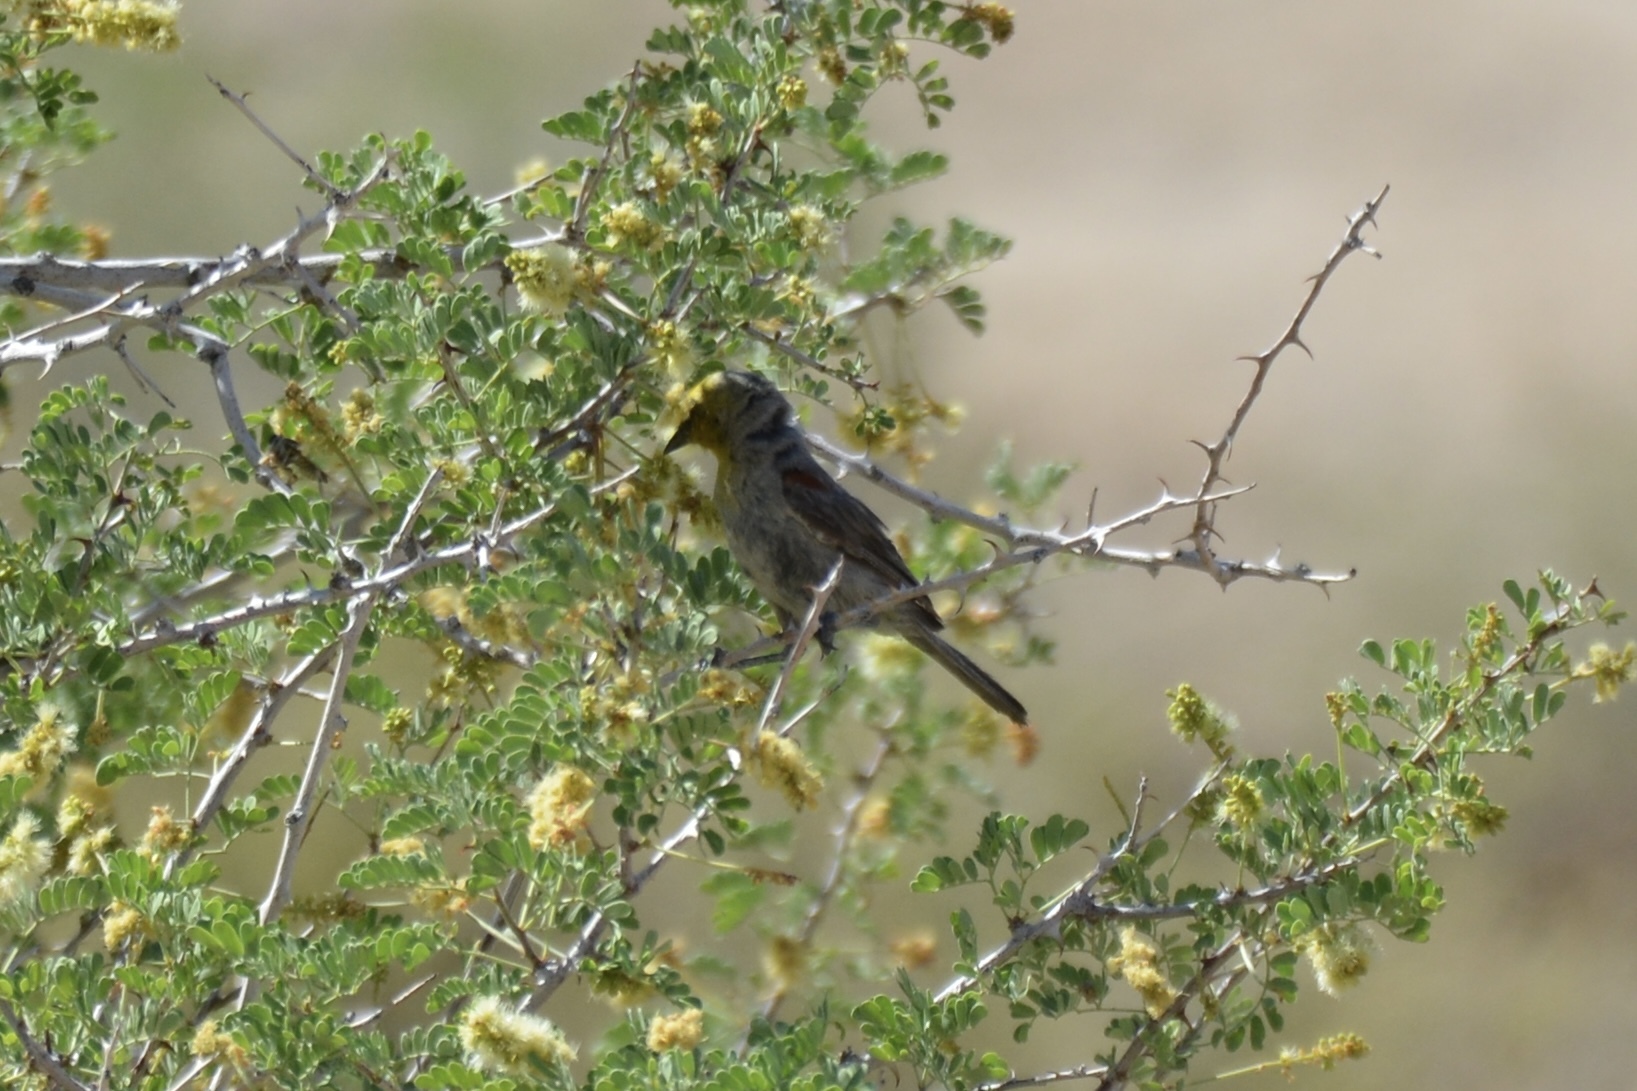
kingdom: Animalia
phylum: Chordata
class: Aves
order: Passeriformes
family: Remizidae
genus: Auriparus
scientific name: Auriparus flaviceps
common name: Verdin
